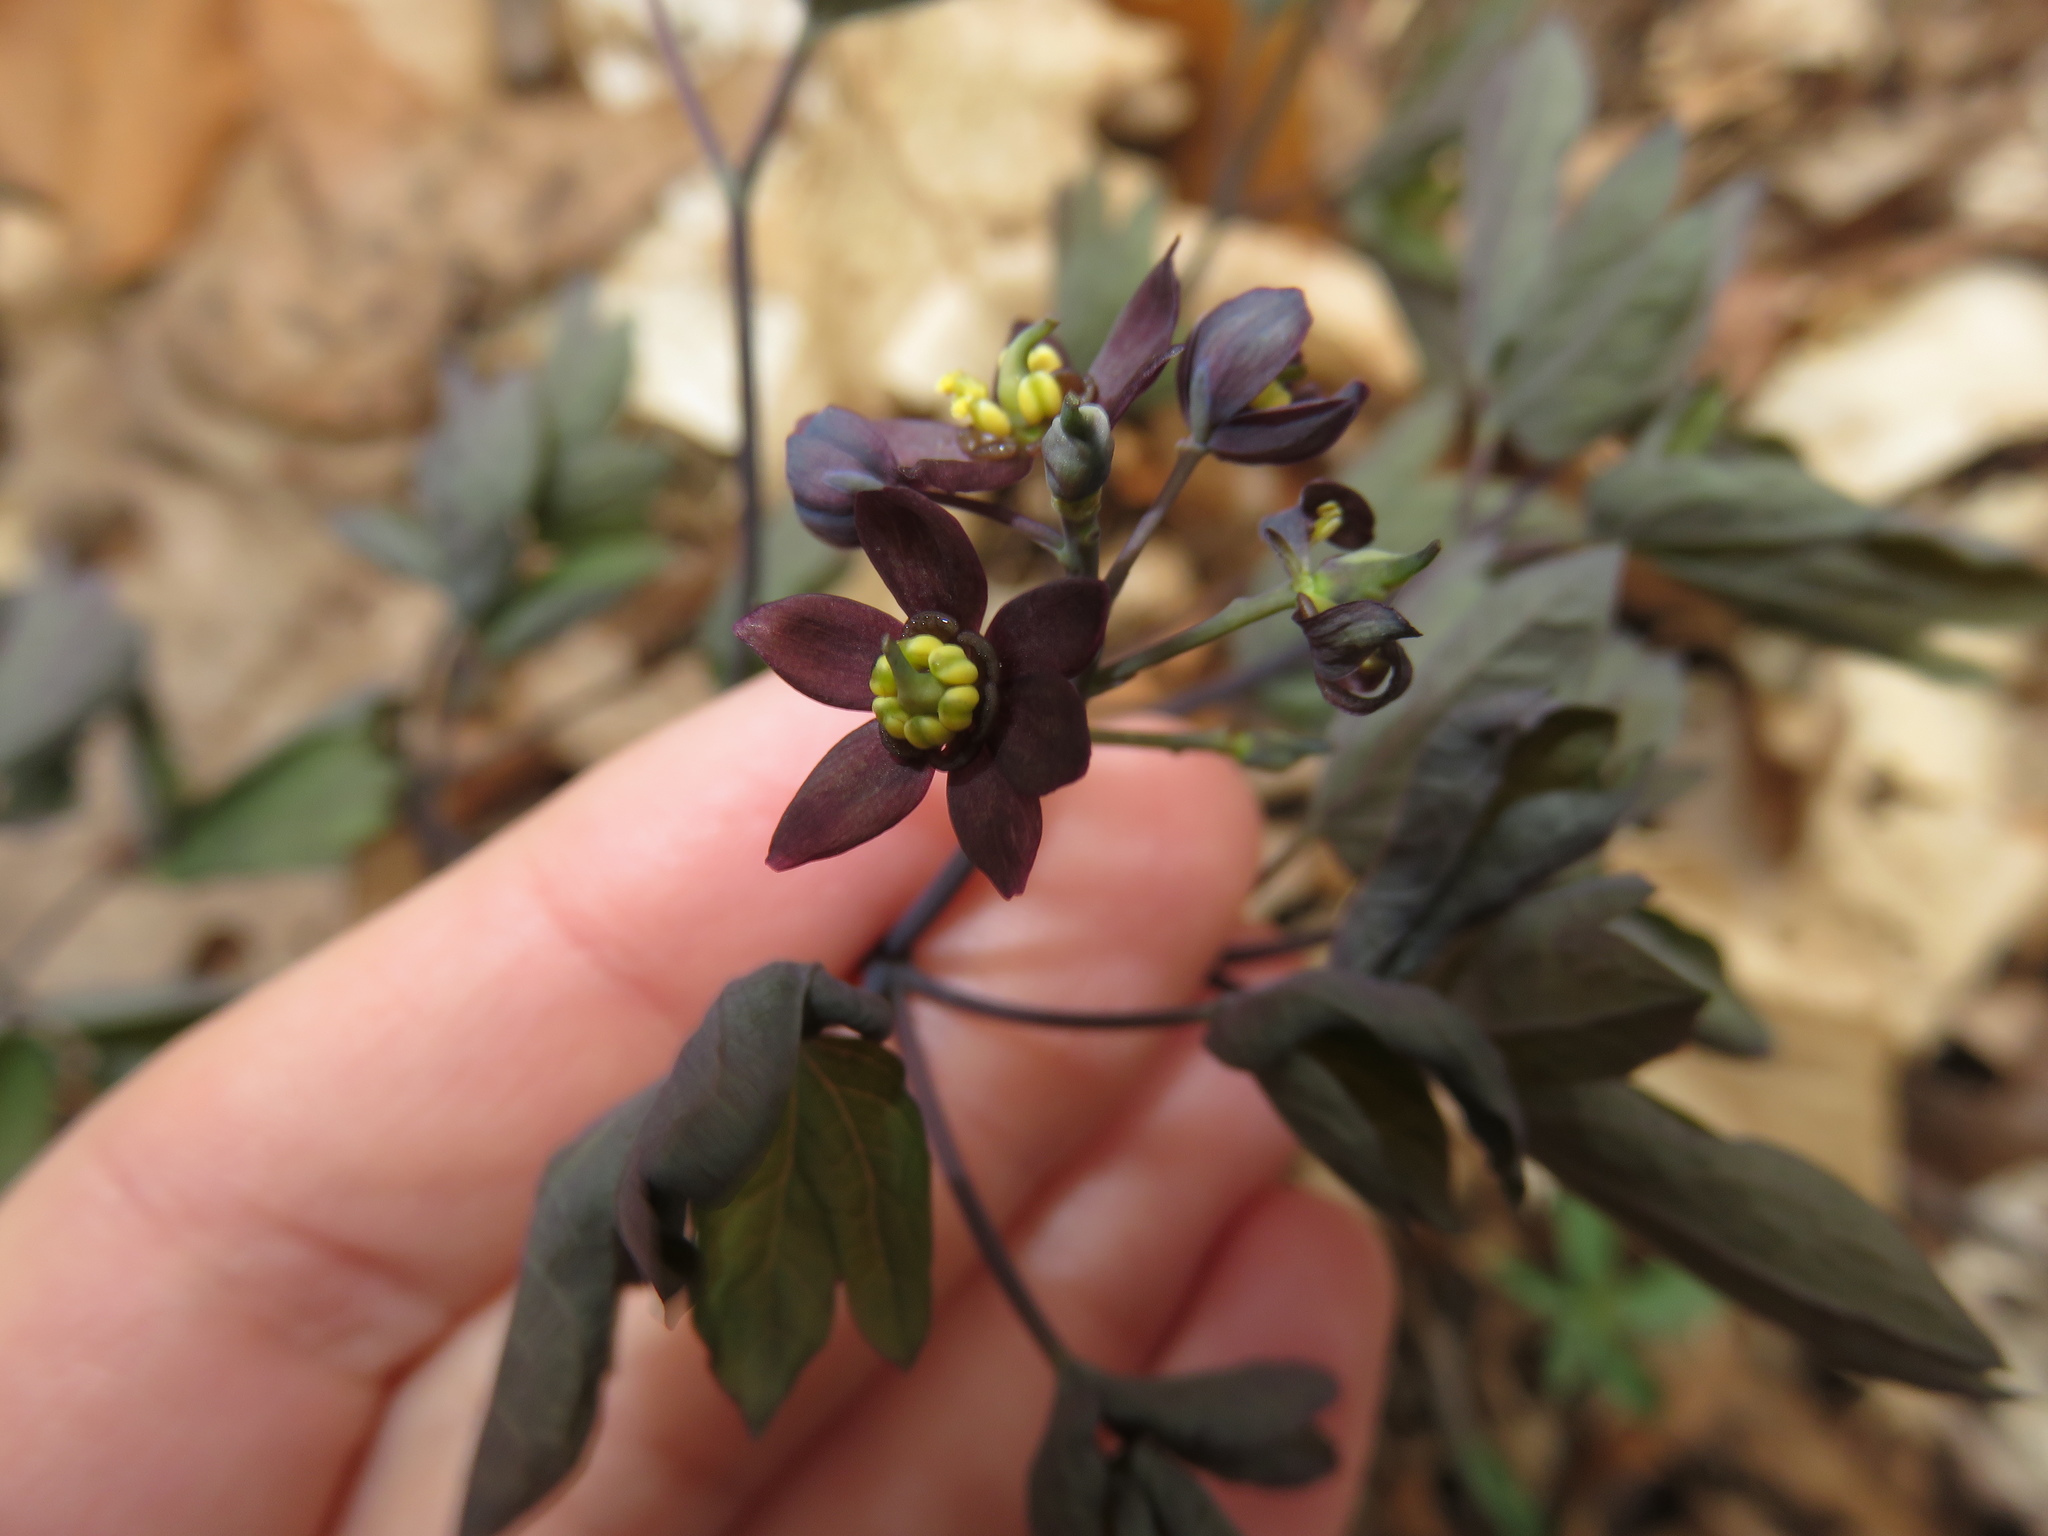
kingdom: Plantae
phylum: Tracheophyta
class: Magnoliopsida
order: Ranunculales
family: Berberidaceae
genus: Caulophyllum
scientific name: Caulophyllum giganteum
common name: Blue cohosh
